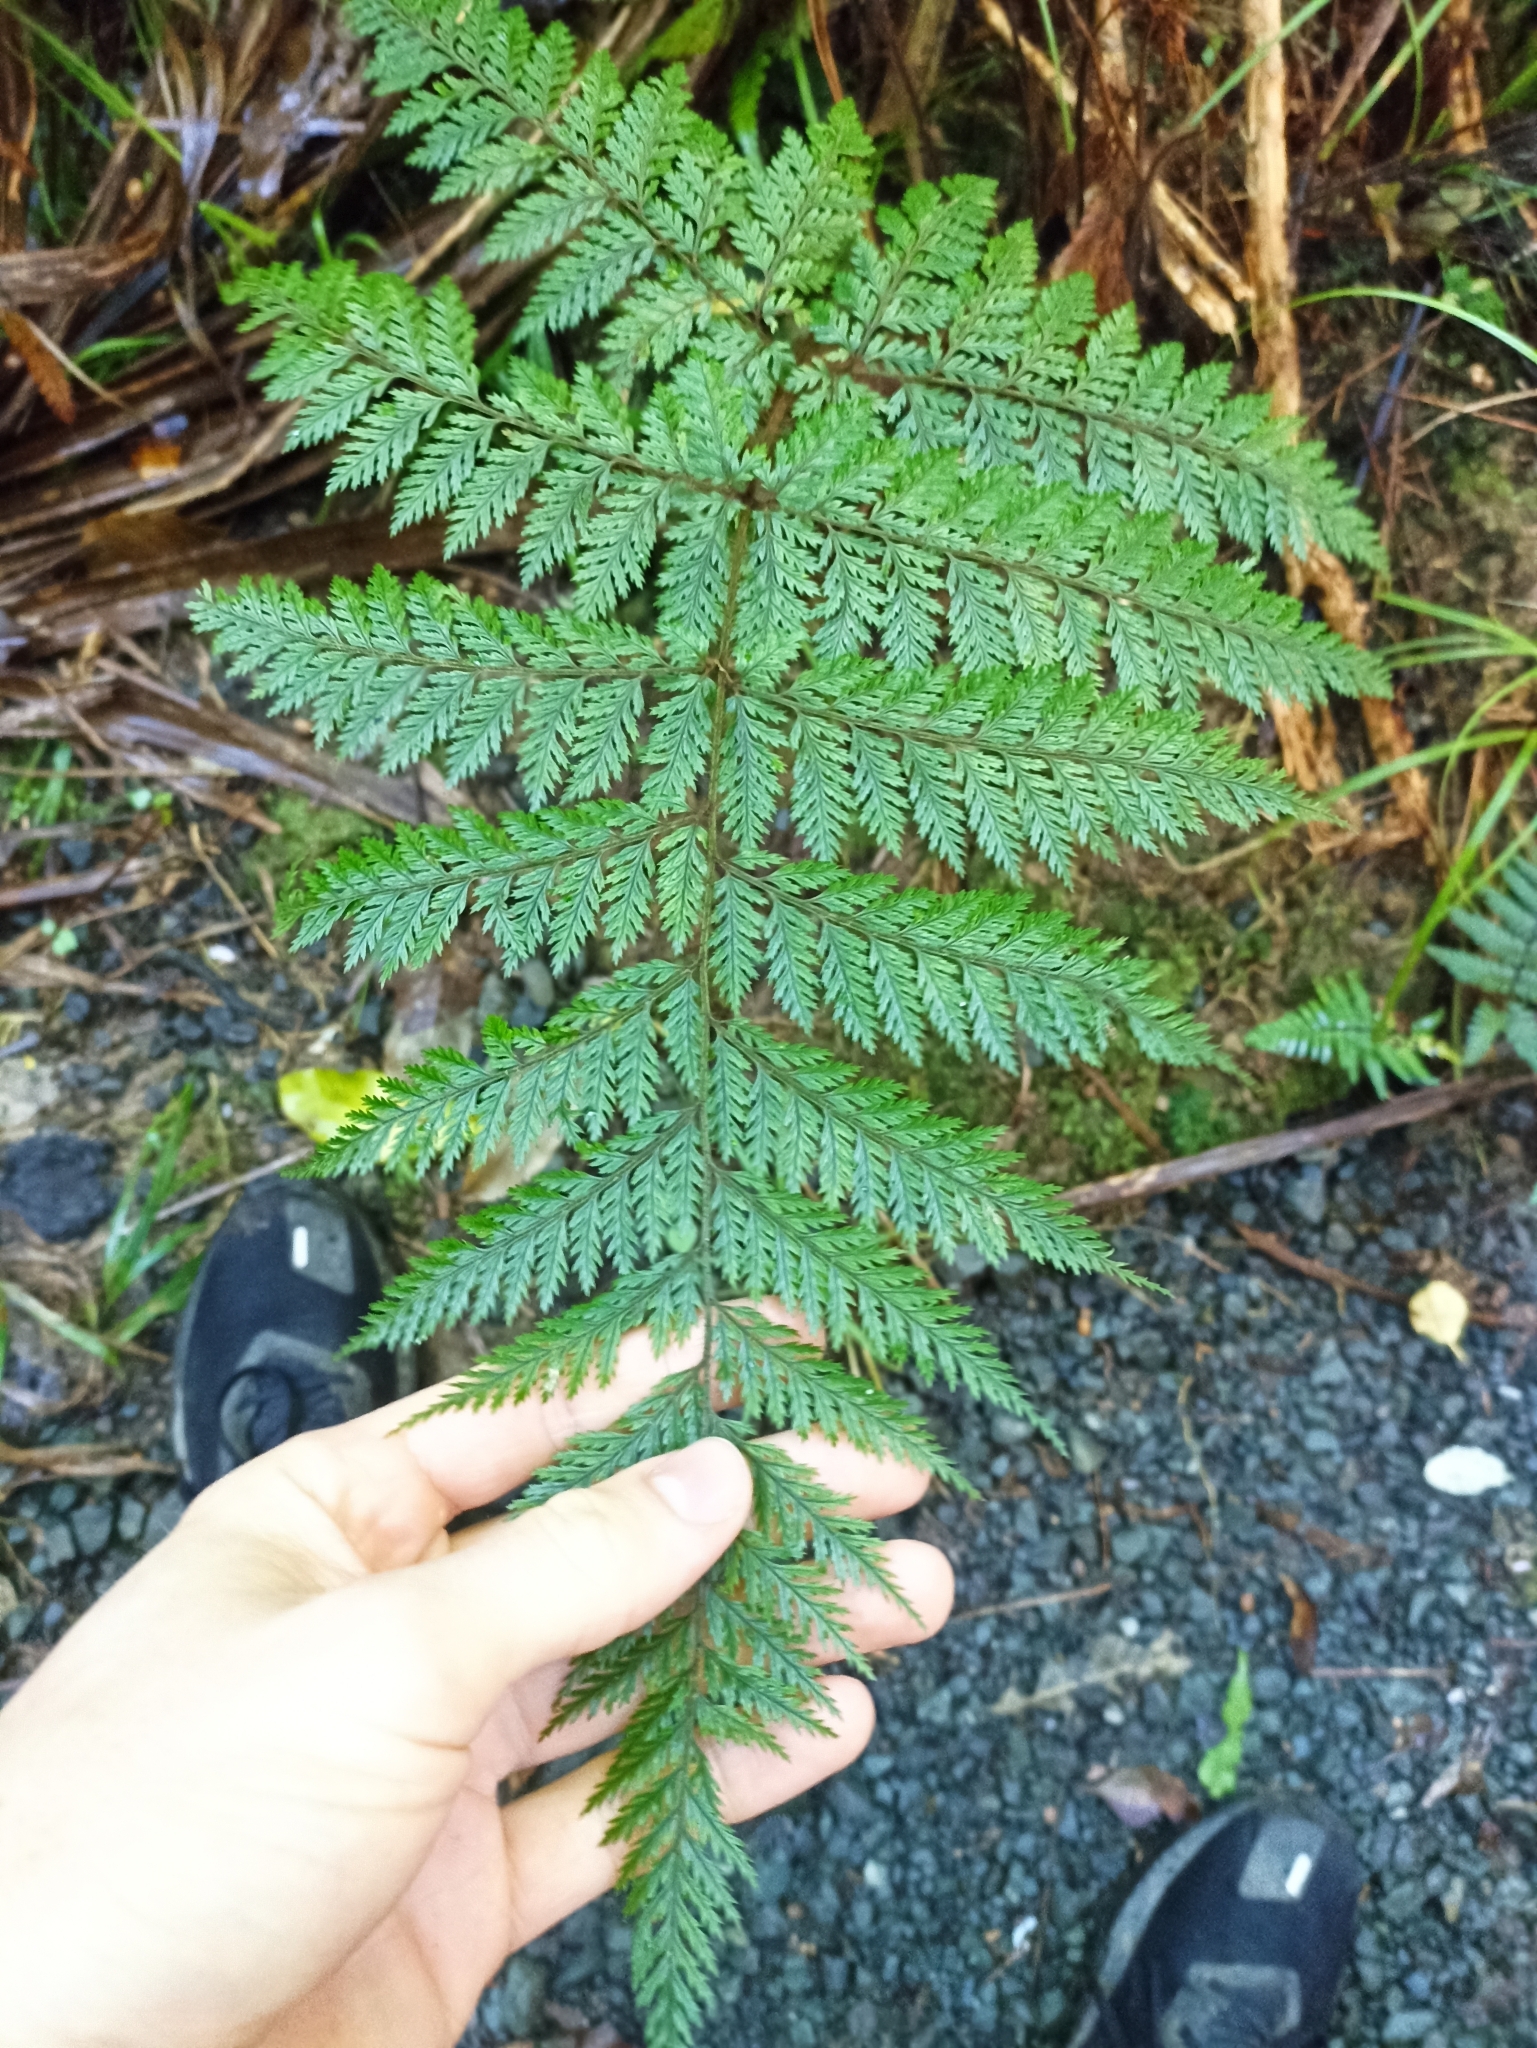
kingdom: Plantae
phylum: Tracheophyta
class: Polypodiopsida
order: Polypodiales
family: Dryopteridaceae
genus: Lastreopsis
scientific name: Lastreopsis hispida
